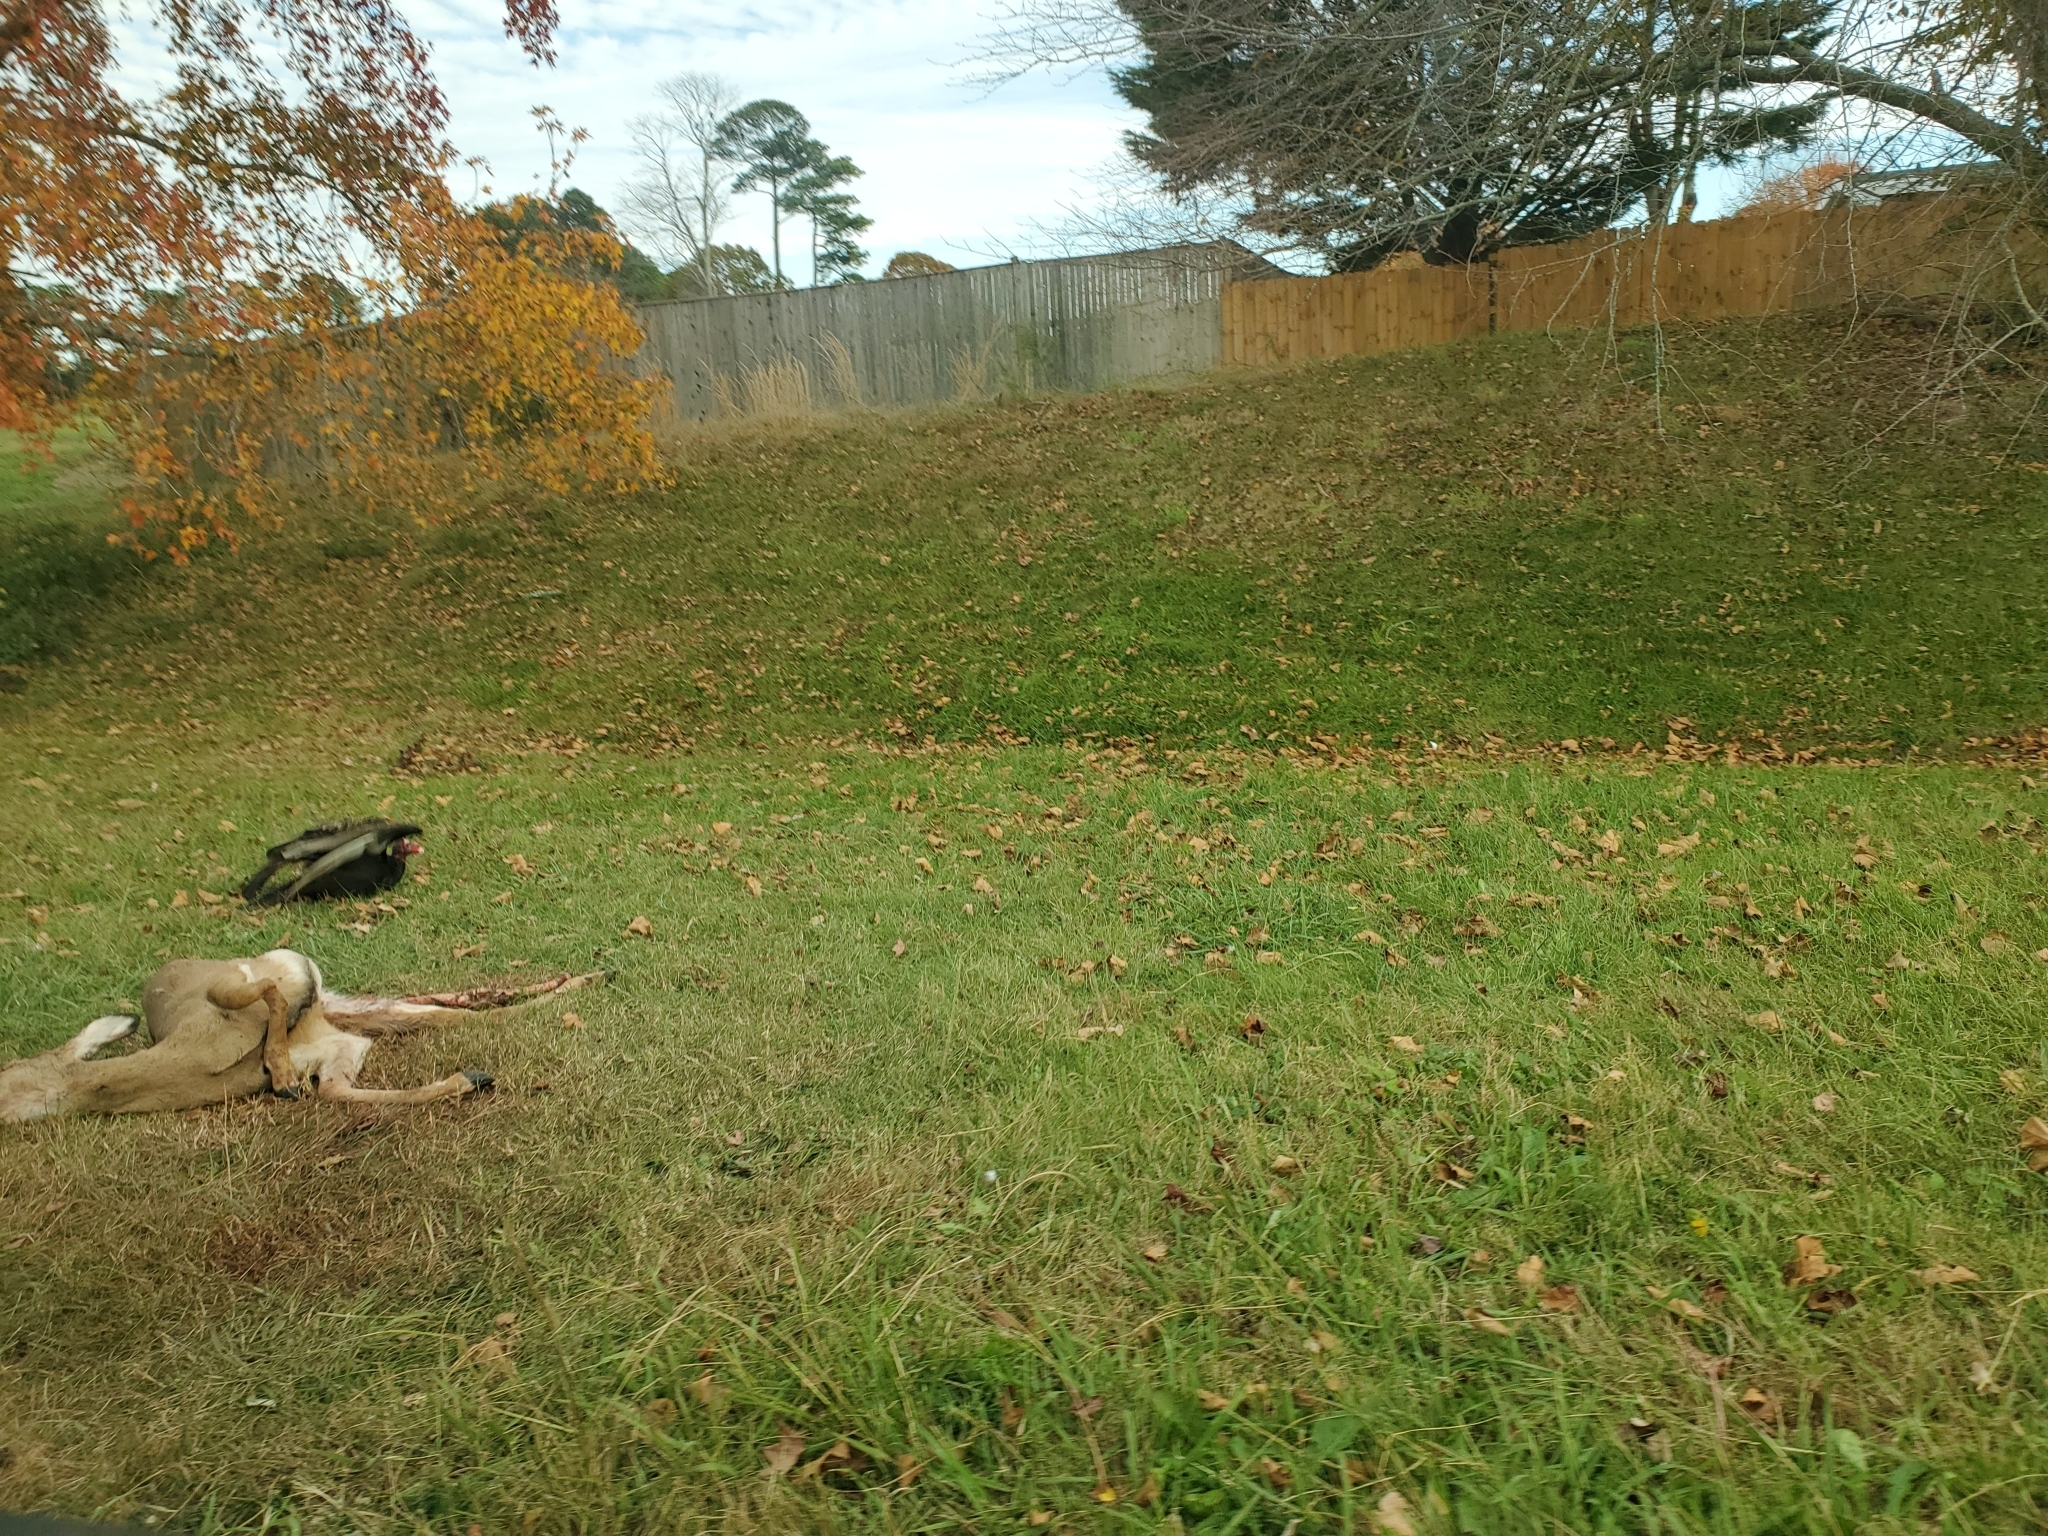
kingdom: Animalia
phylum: Chordata
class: Aves
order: Accipitriformes
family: Cathartidae
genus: Cathartes
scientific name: Cathartes aura
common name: Turkey vulture
